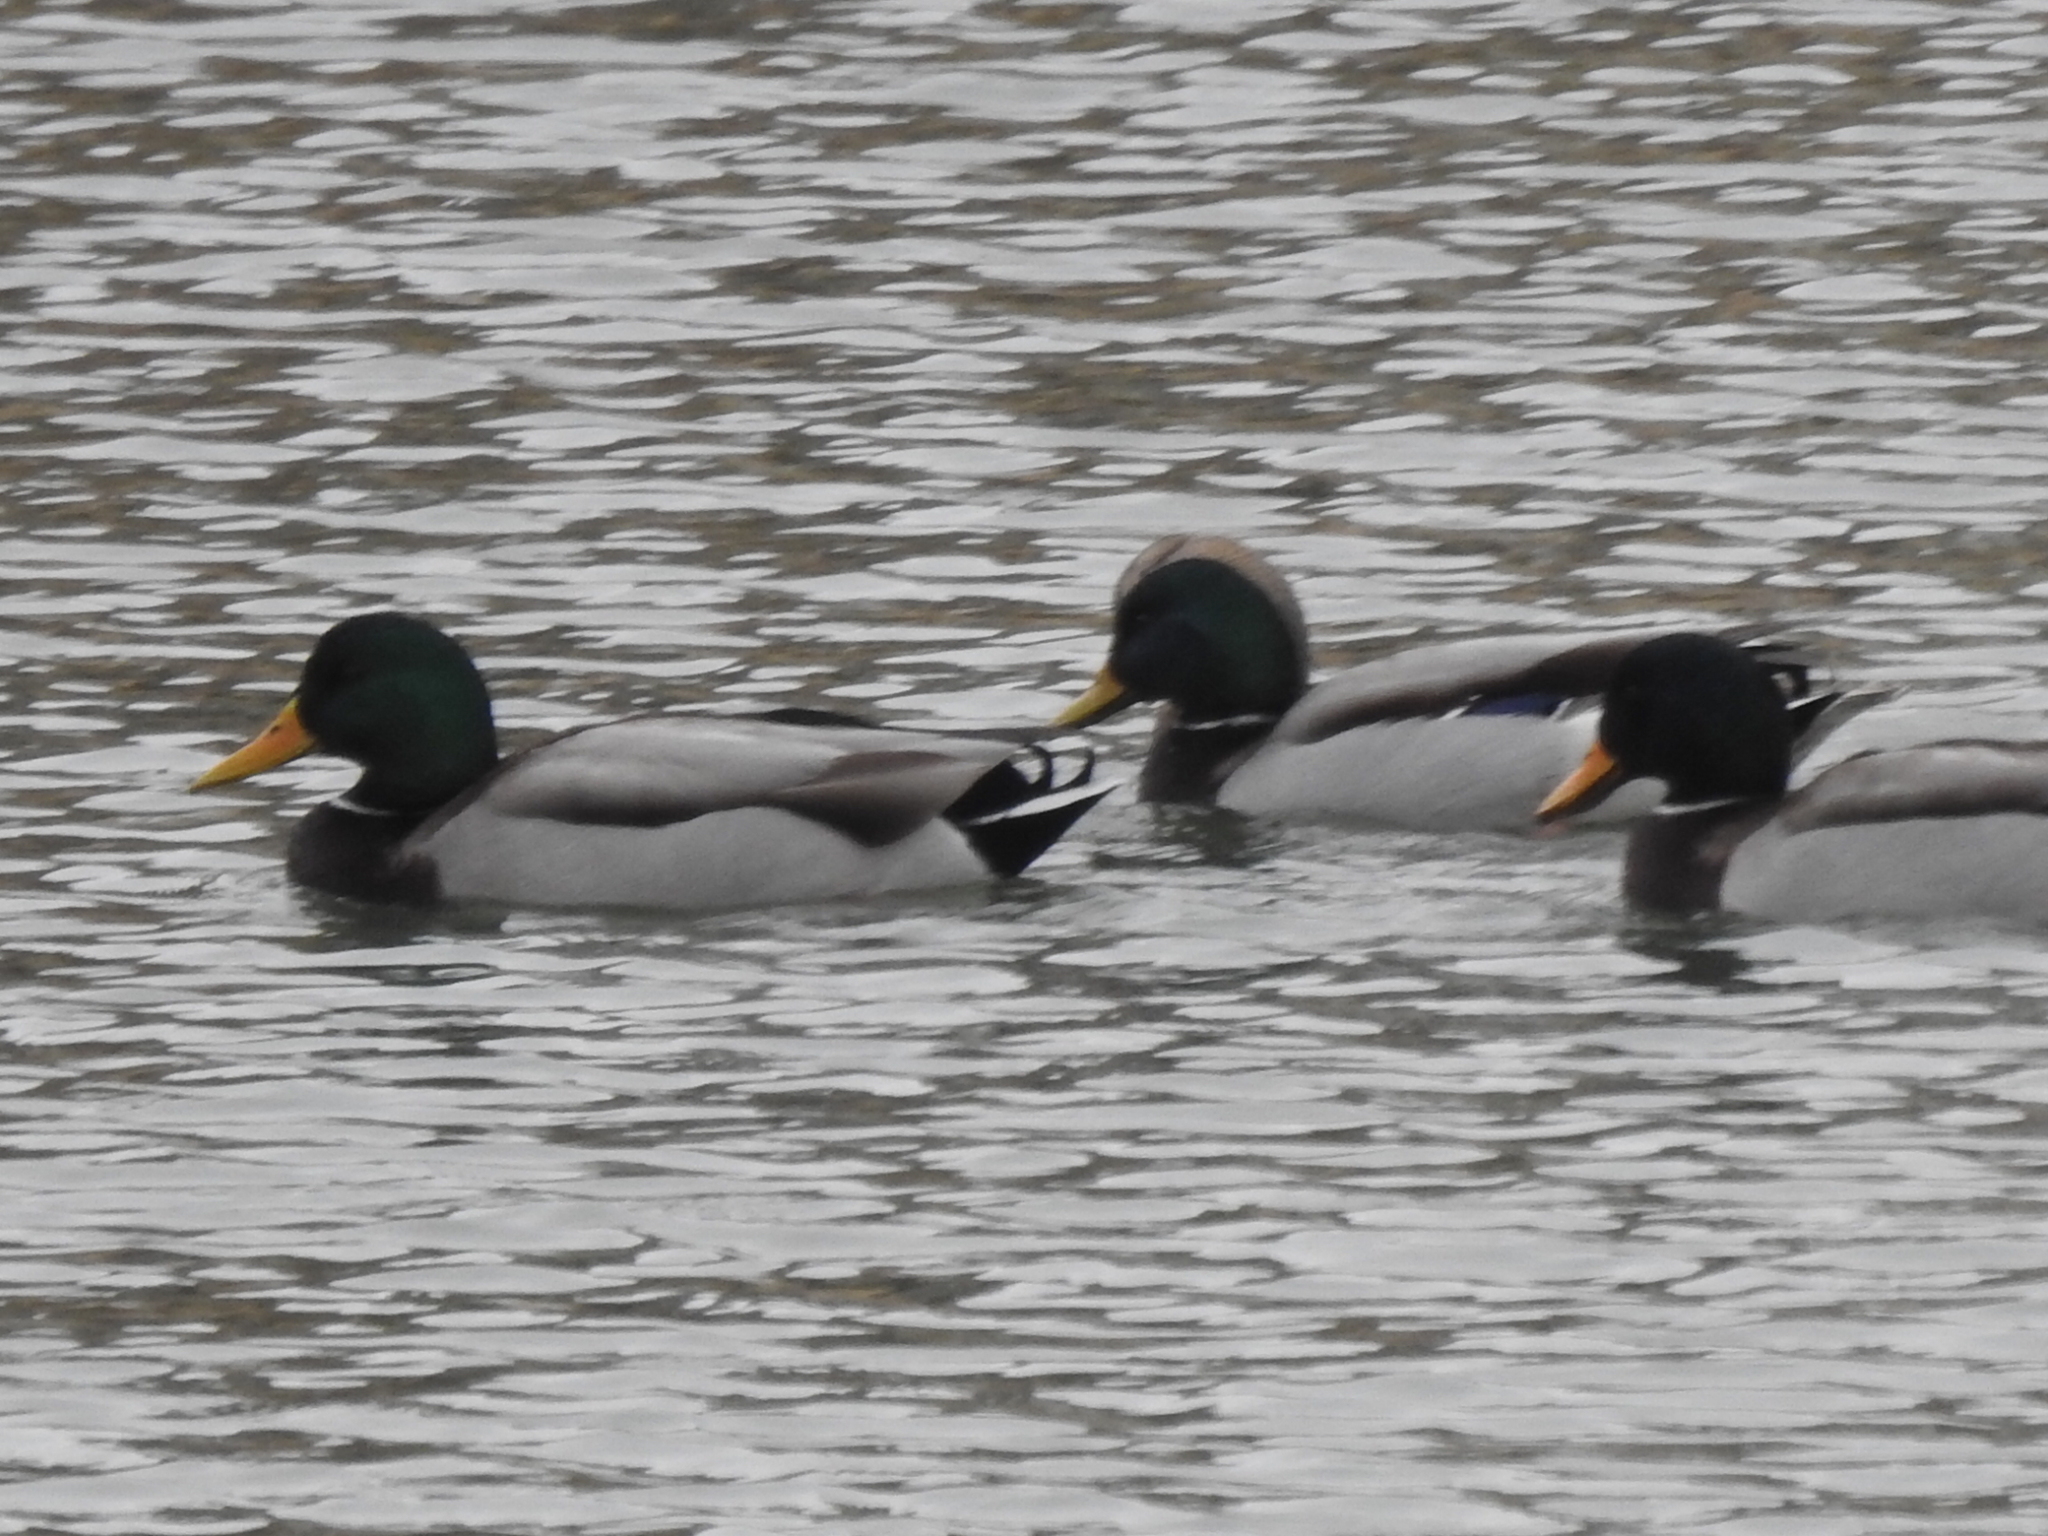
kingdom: Animalia
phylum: Chordata
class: Aves
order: Anseriformes
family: Anatidae
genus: Anas
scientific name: Anas platyrhynchos
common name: Mallard
